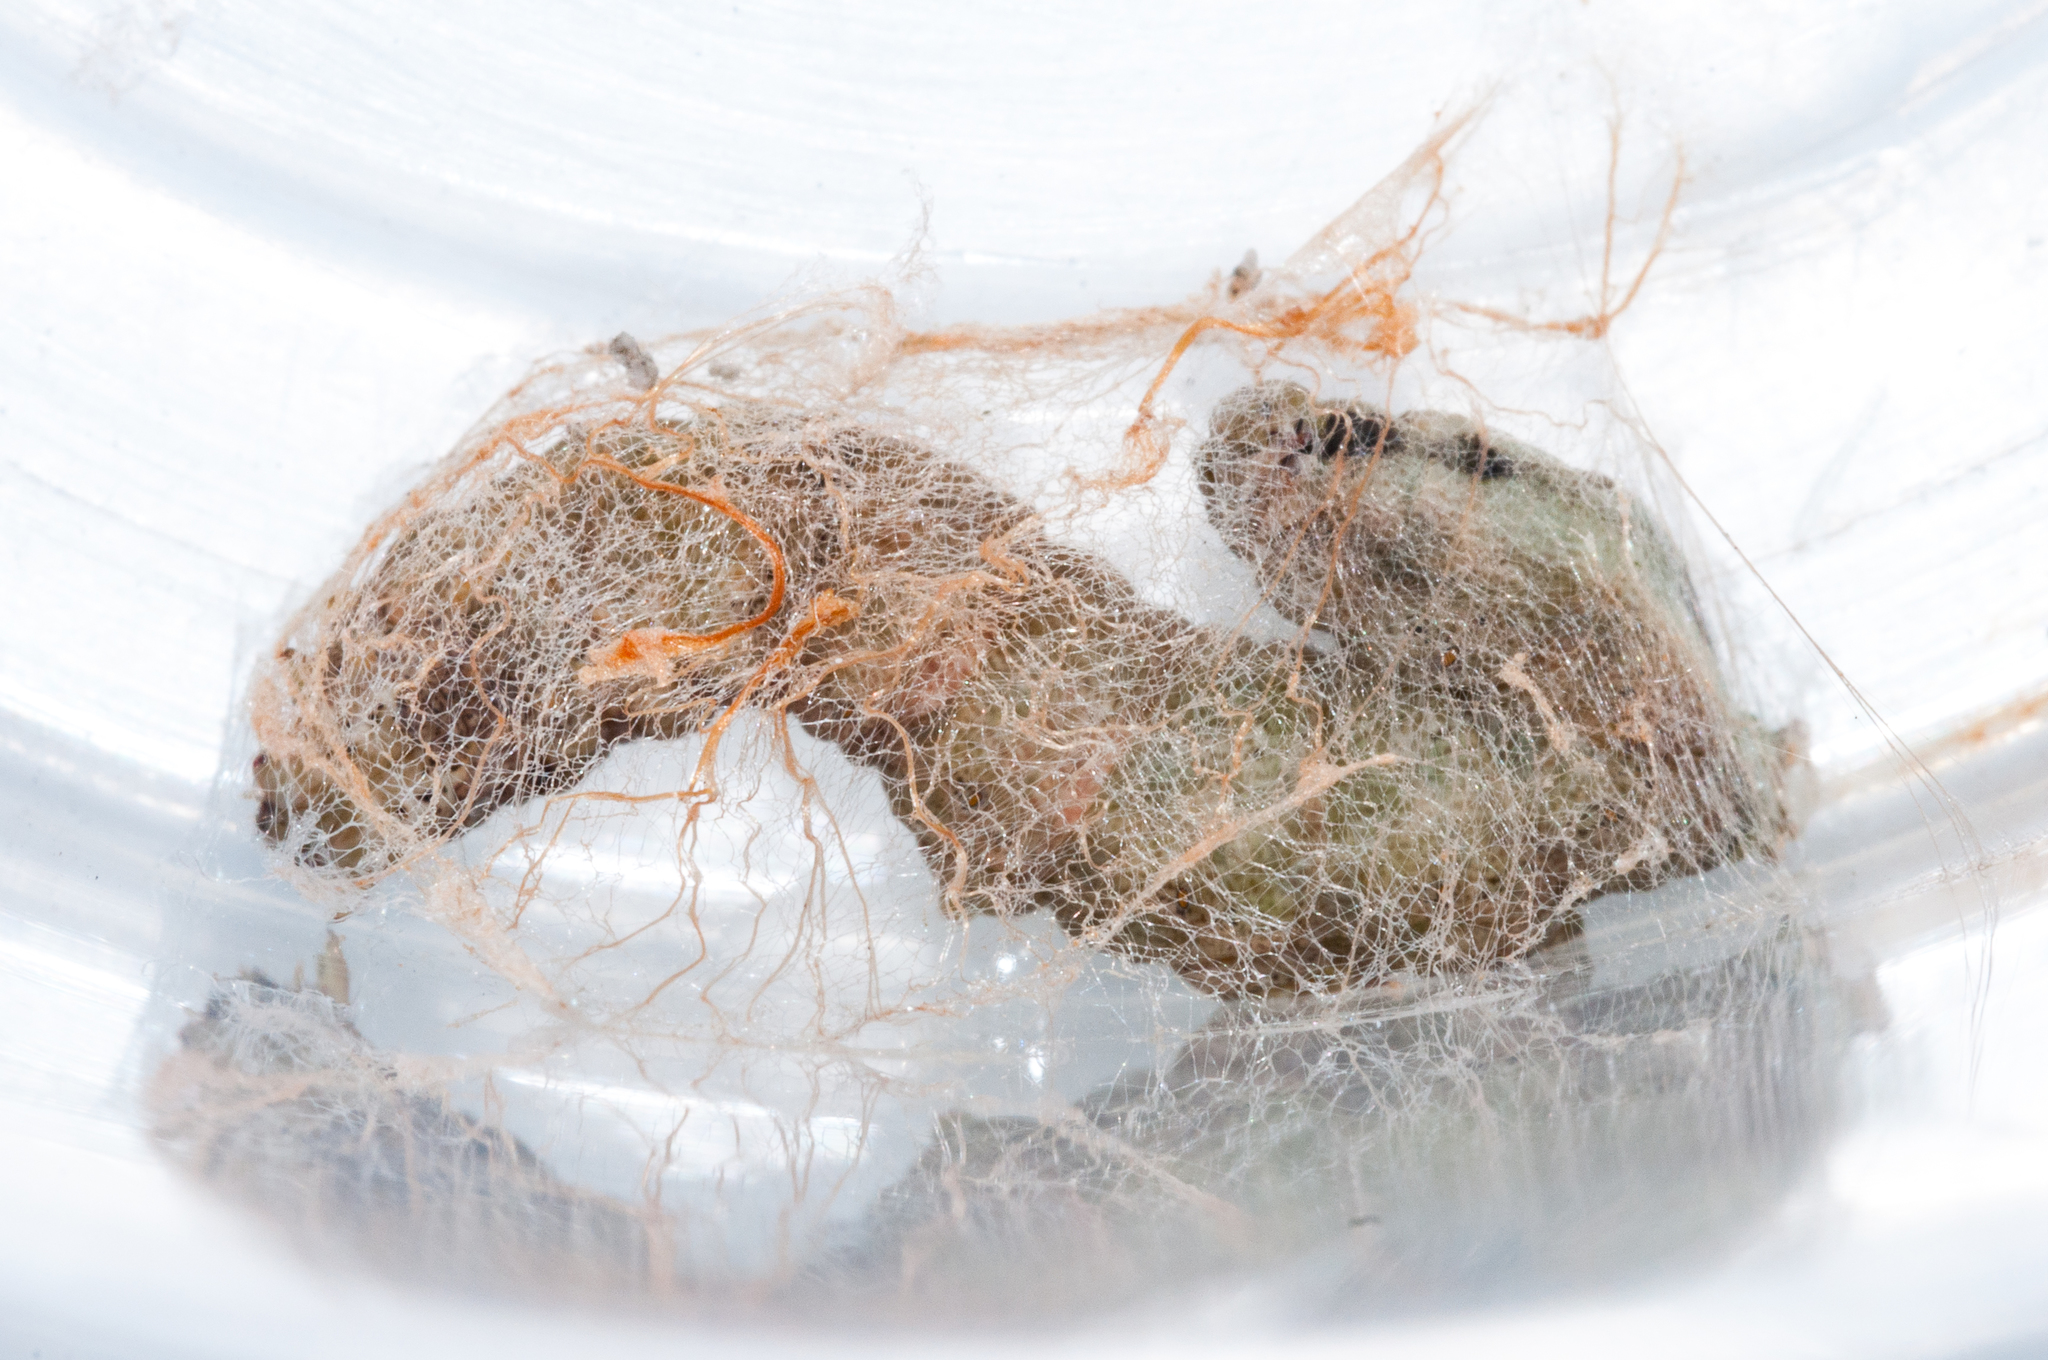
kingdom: Animalia
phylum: Arthropoda
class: Insecta
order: Lepidoptera
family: Erebidae
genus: Achaea
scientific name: Achaea indeterminata
